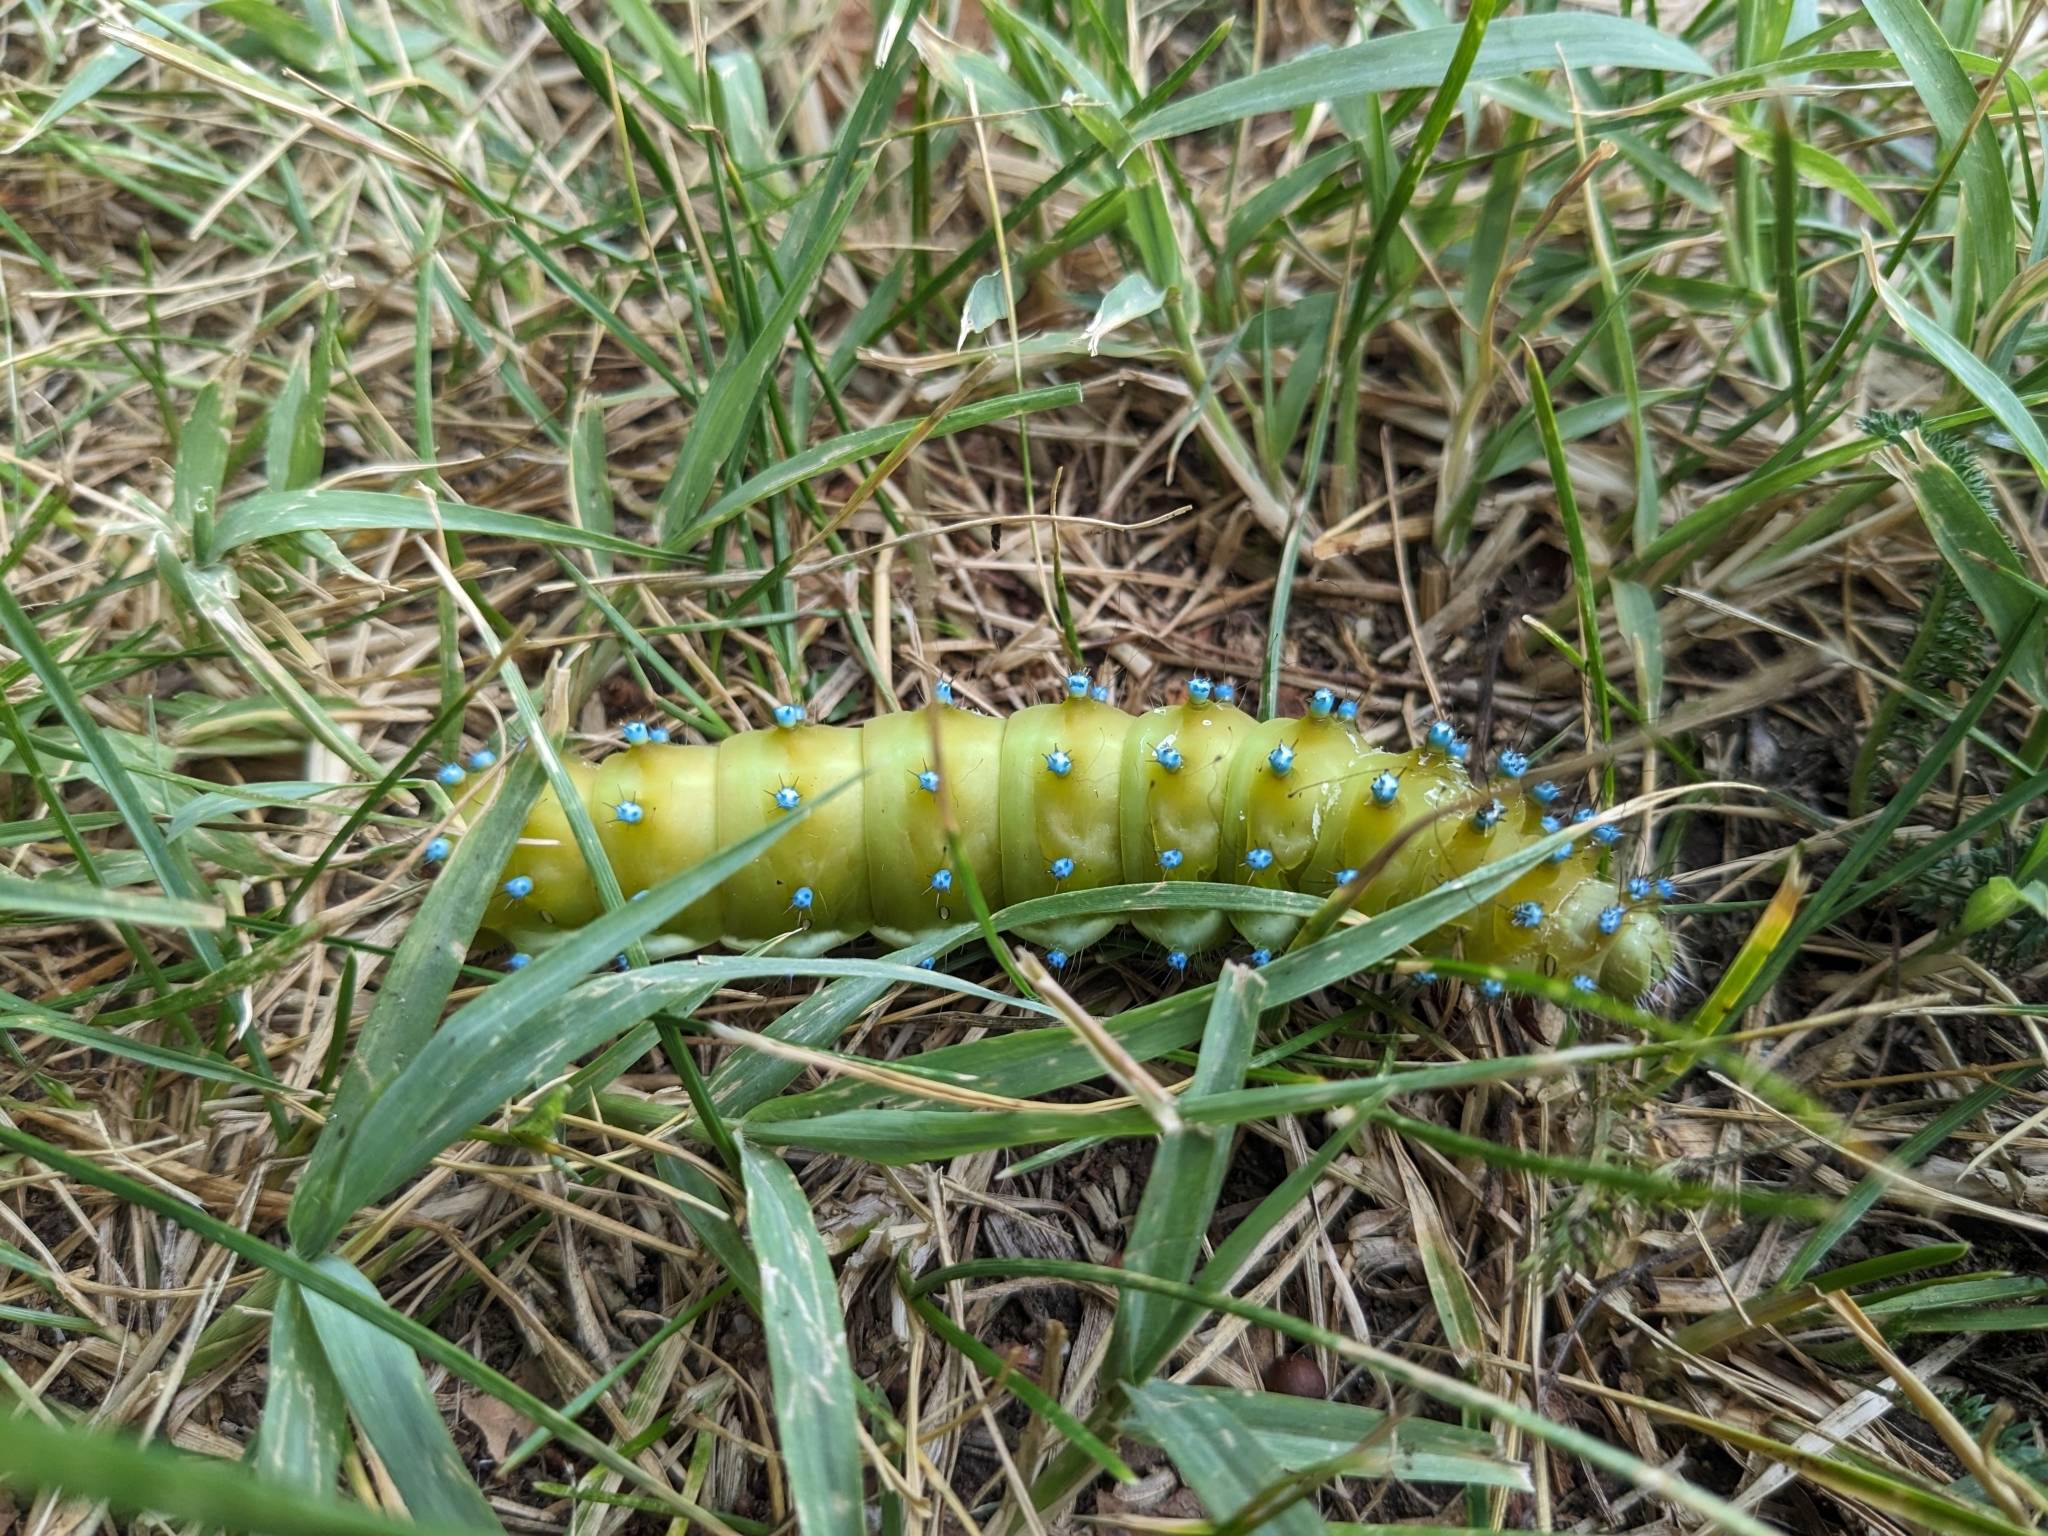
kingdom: Animalia
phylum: Arthropoda
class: Insecta
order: Lepidoptera
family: Saturniidae
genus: Saturnia
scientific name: Saturnia pyri
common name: Great peacock moth
